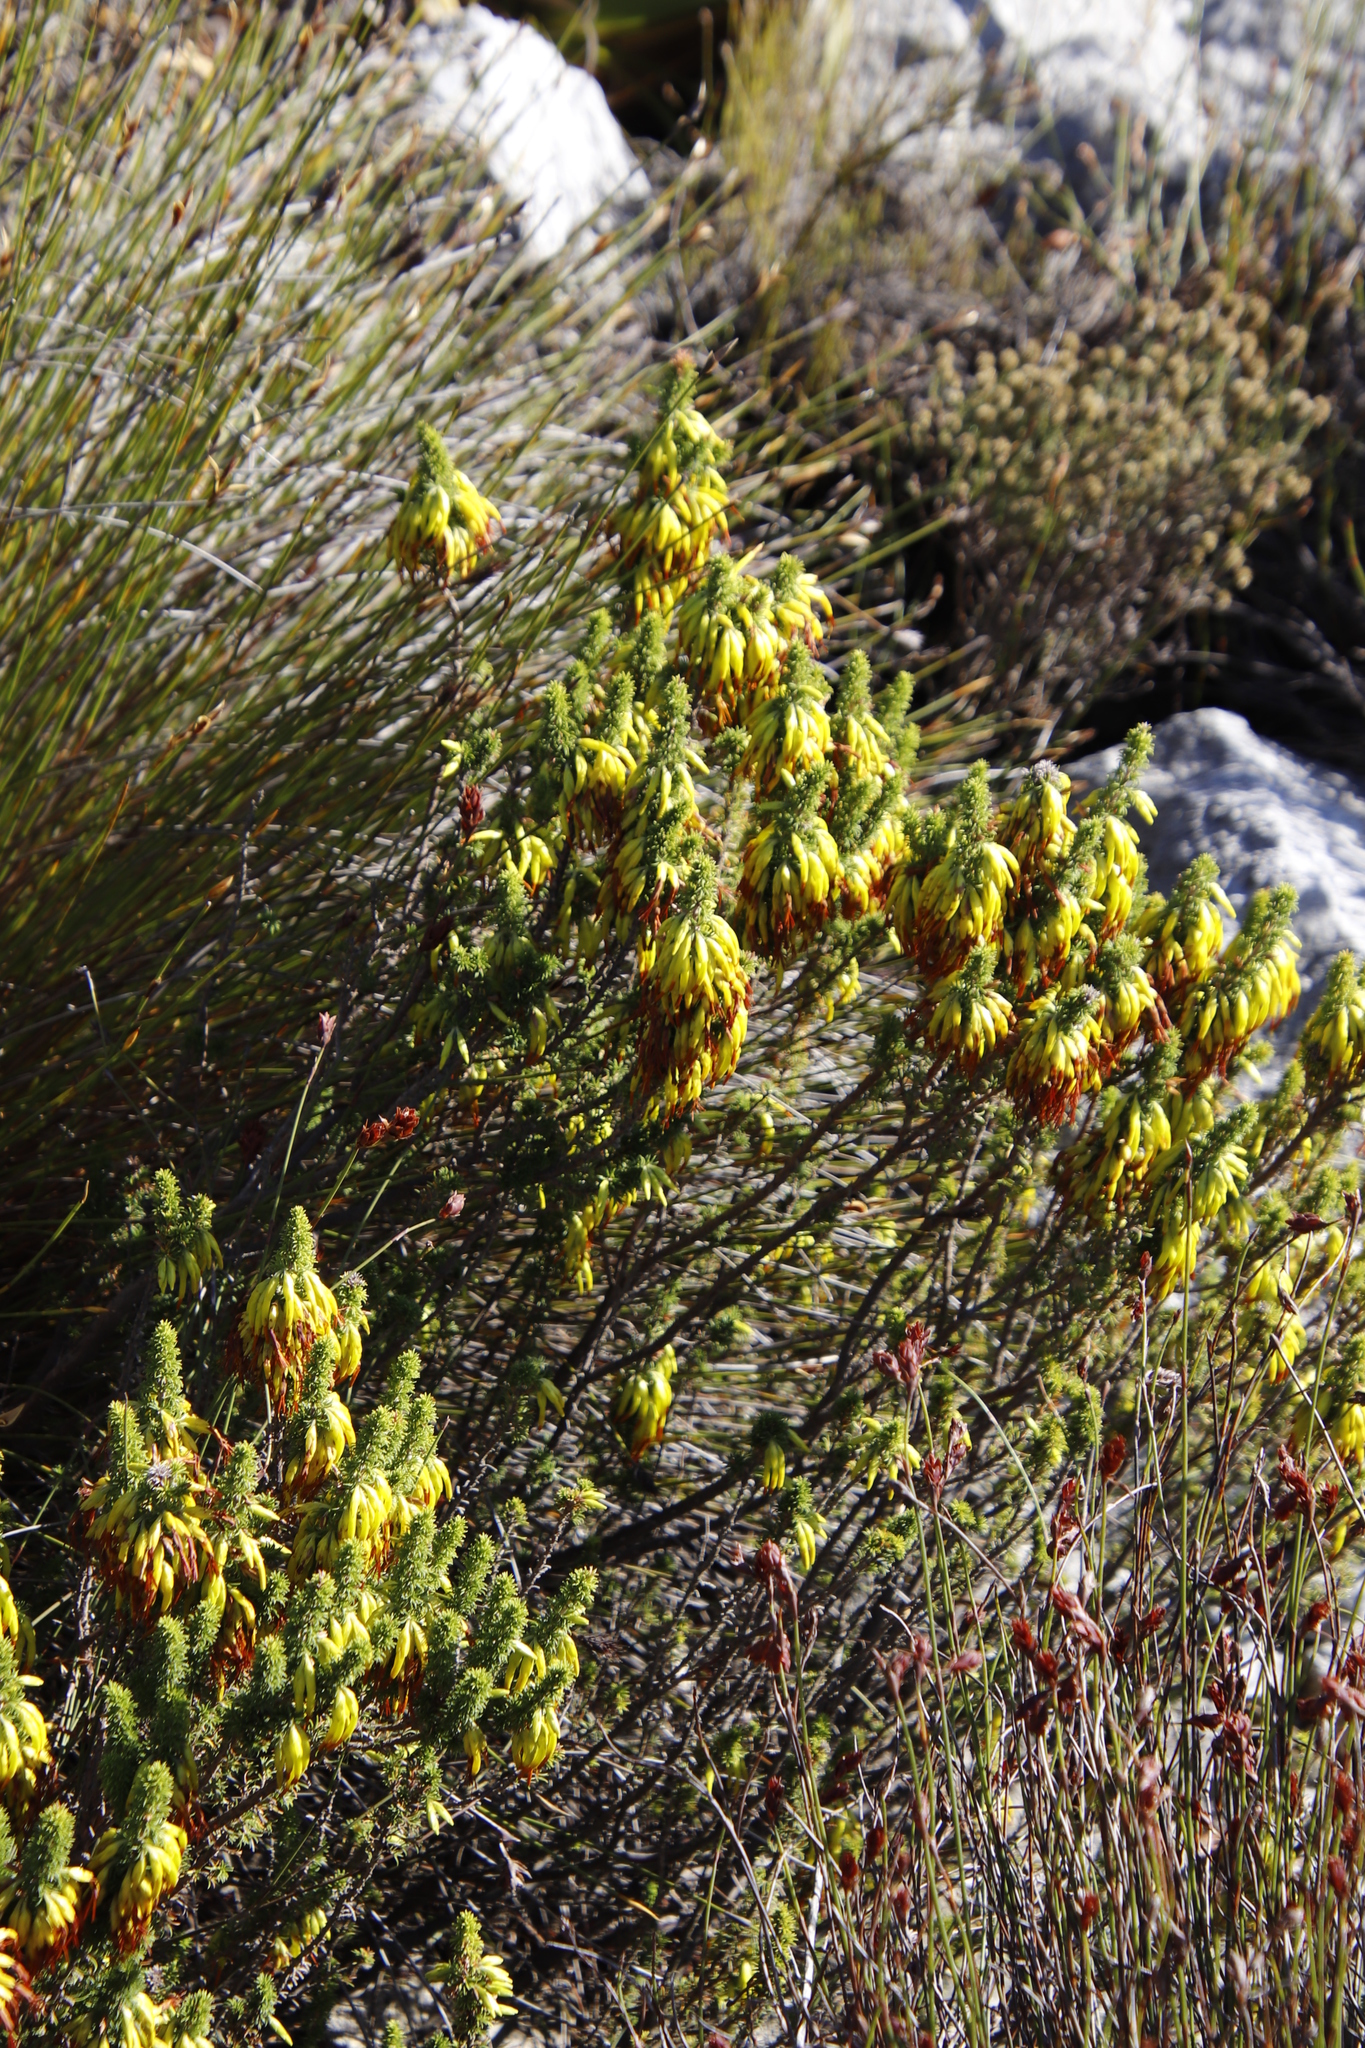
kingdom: Plantae
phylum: Tracheophyta
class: Magnoliopsida
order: Ericales
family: Ericaceae
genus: Erica
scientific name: Erica coccinea
